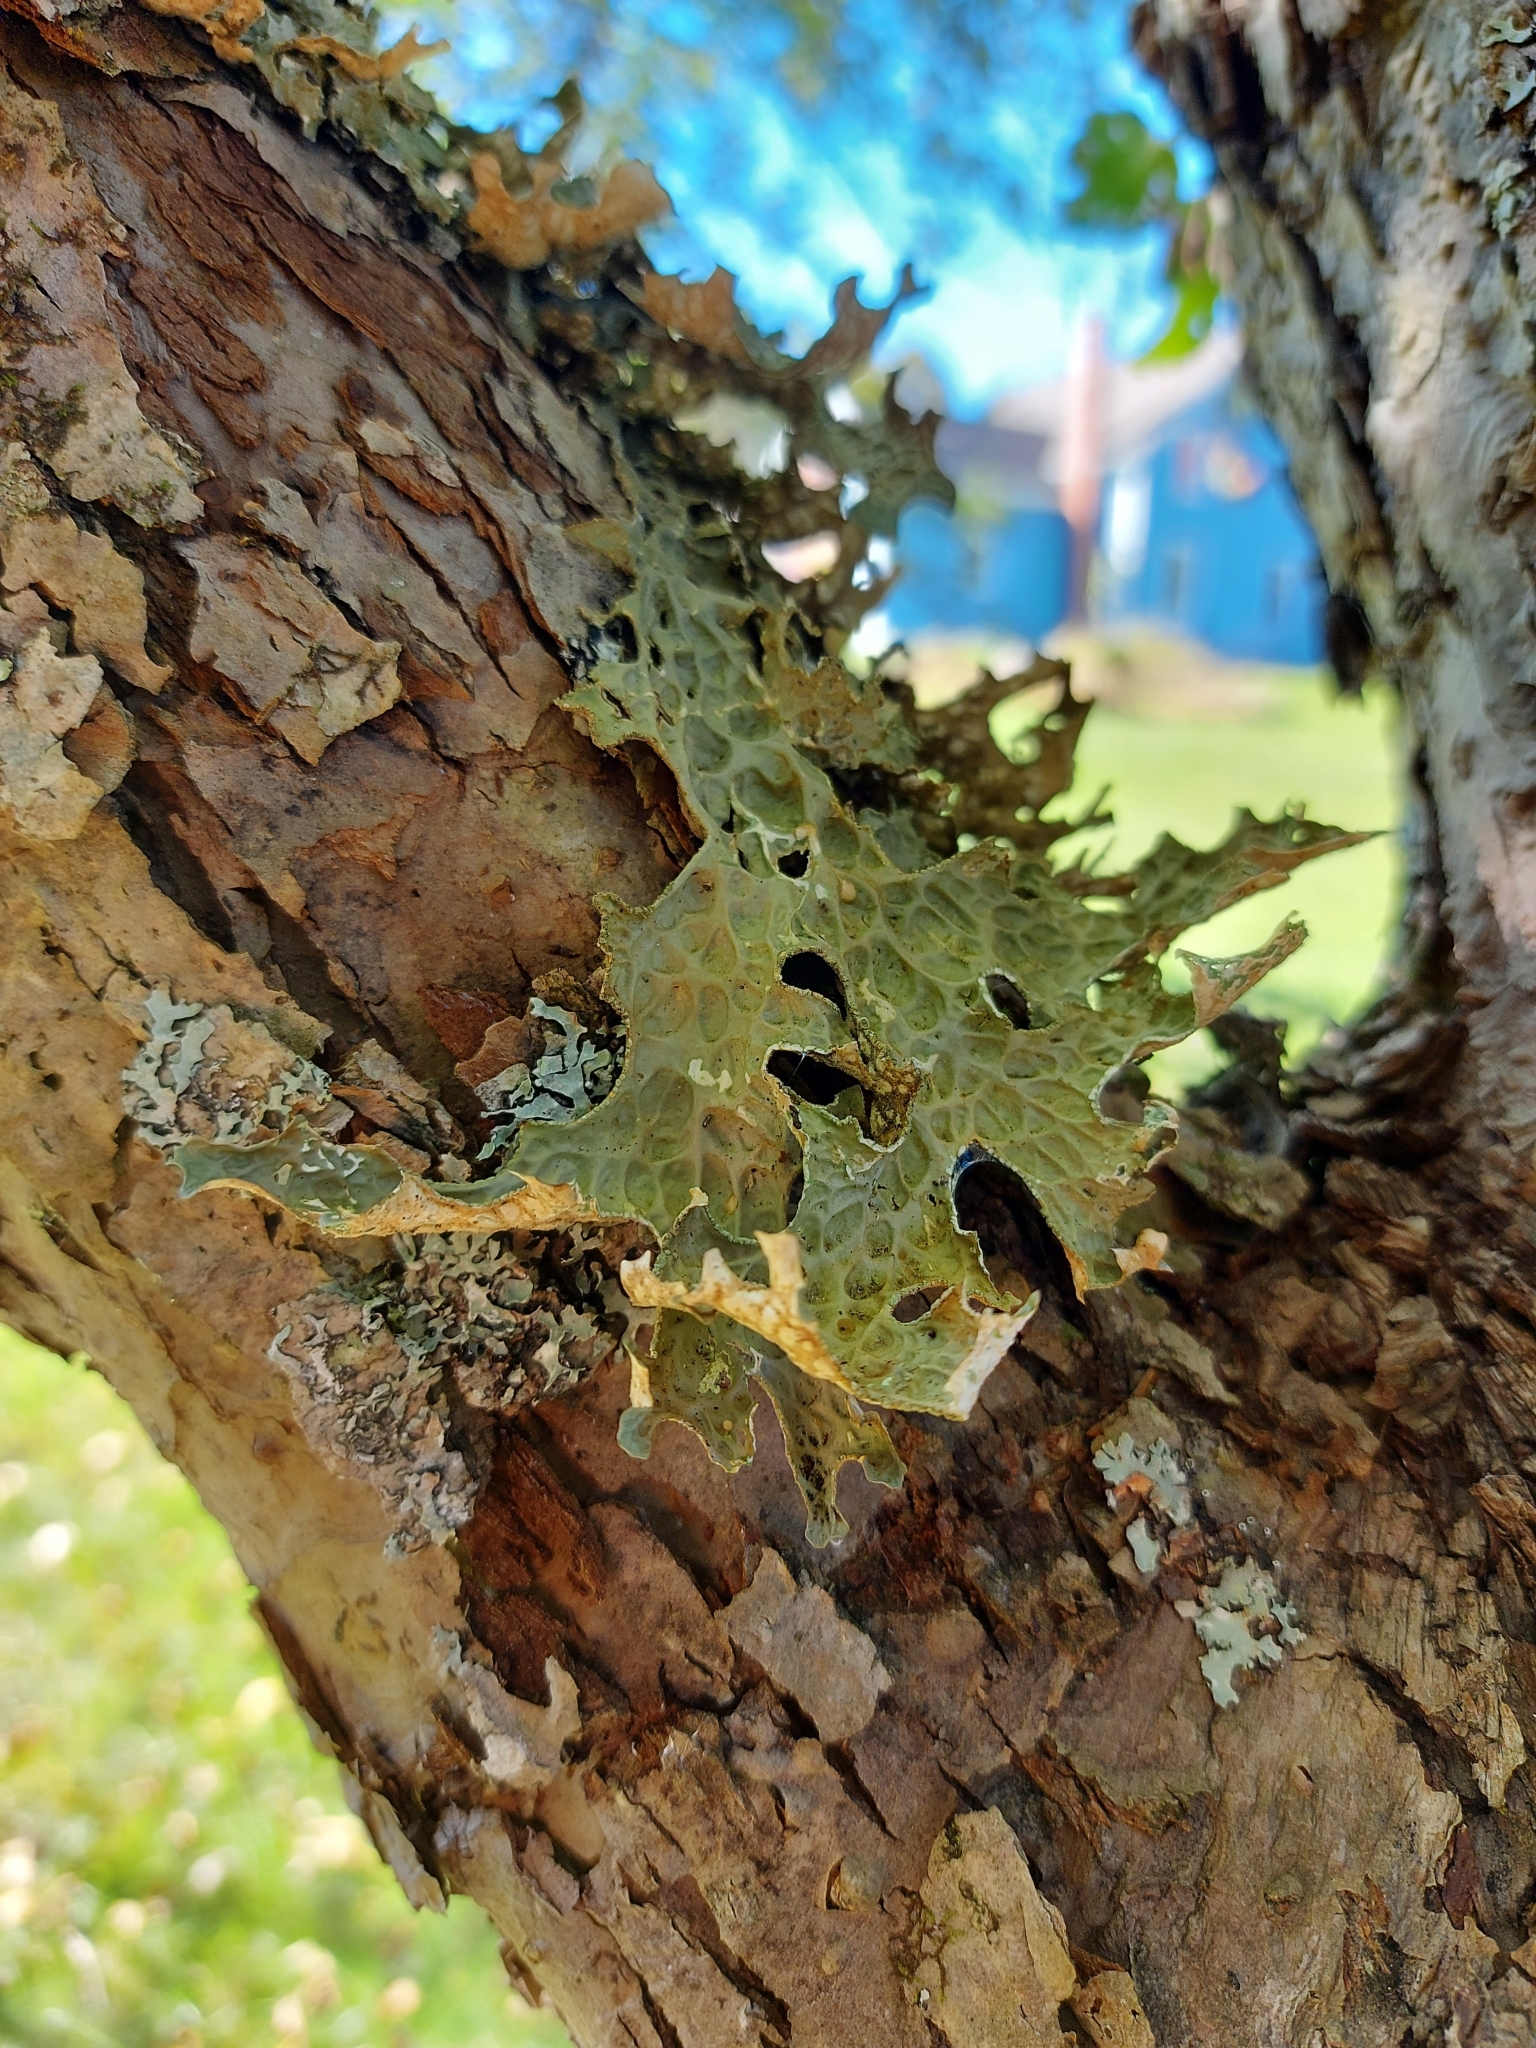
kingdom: Fungi
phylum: Ascomycota
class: Lecanoromycetes
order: Peltigerales
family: Lobariaceae
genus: Lobaria
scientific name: Lobaria pulmonaria
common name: Lungwort
